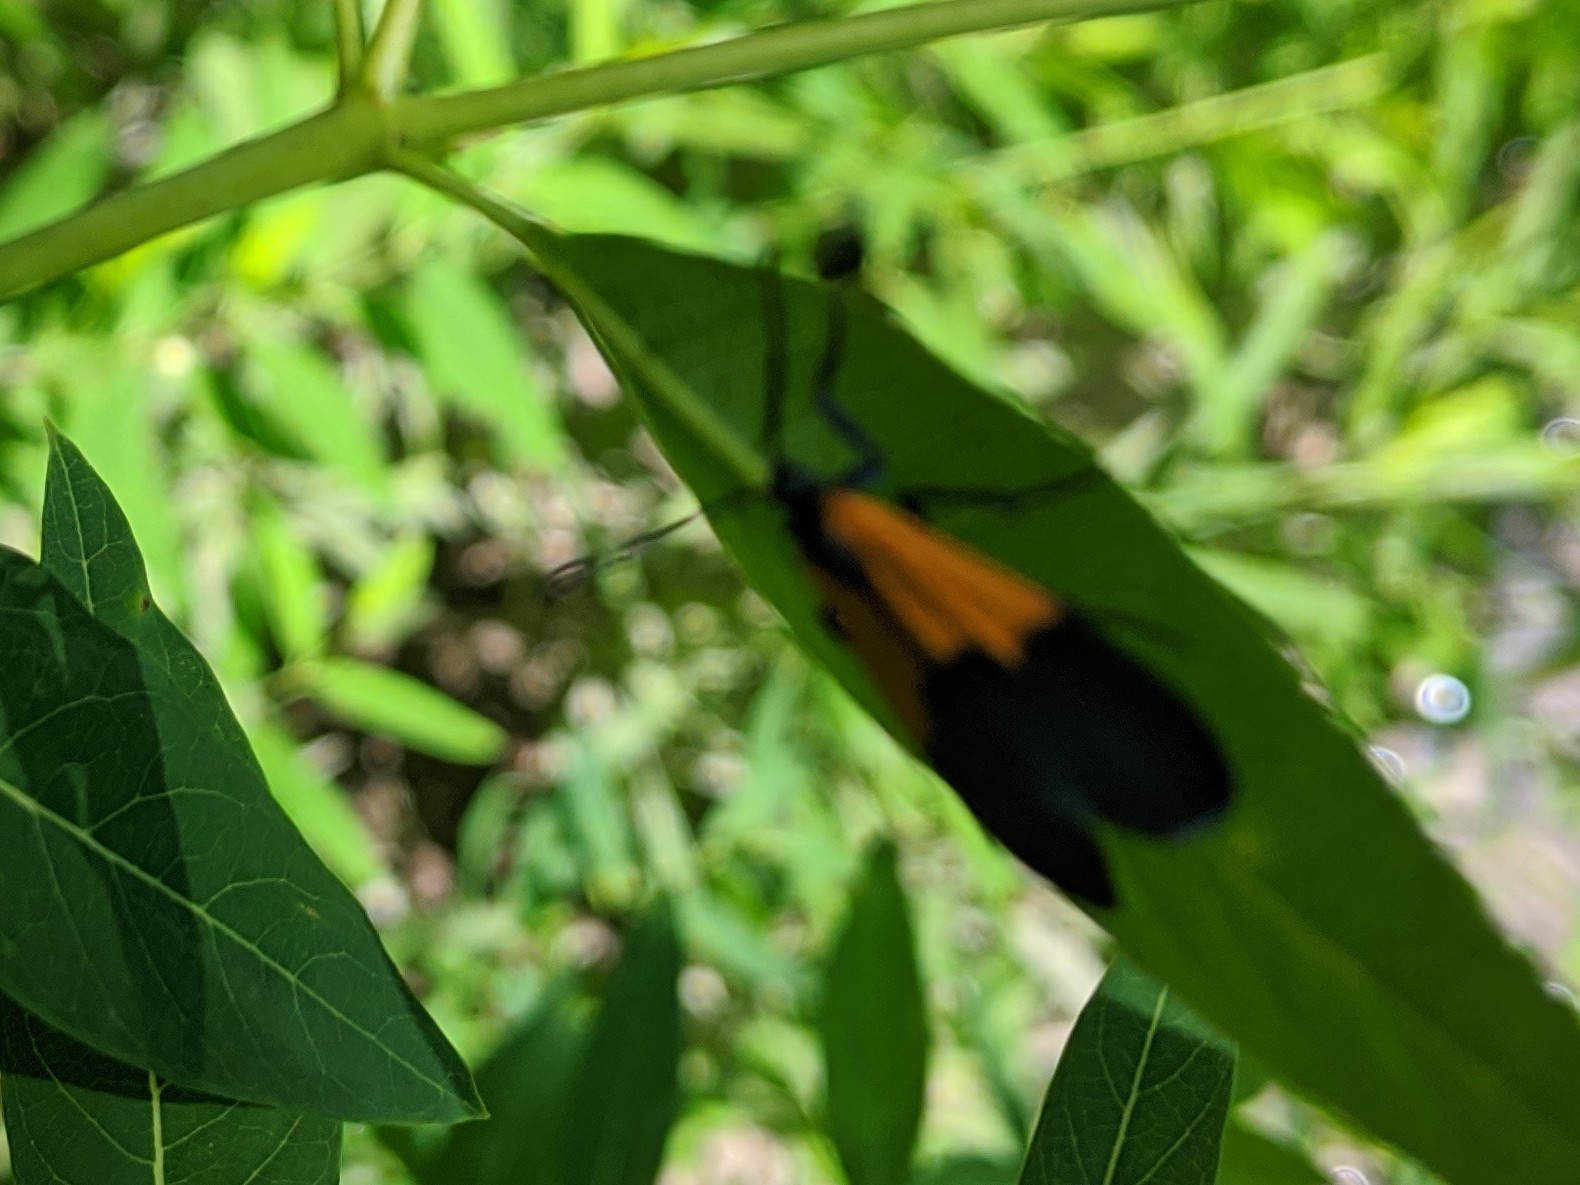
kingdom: Animalia
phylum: Arthropoda
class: Insecta
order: Lepidoptera
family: Erebidae
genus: Lycomorpha
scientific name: Lycomorpha pholus
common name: Black-and-yellow lichen moth
